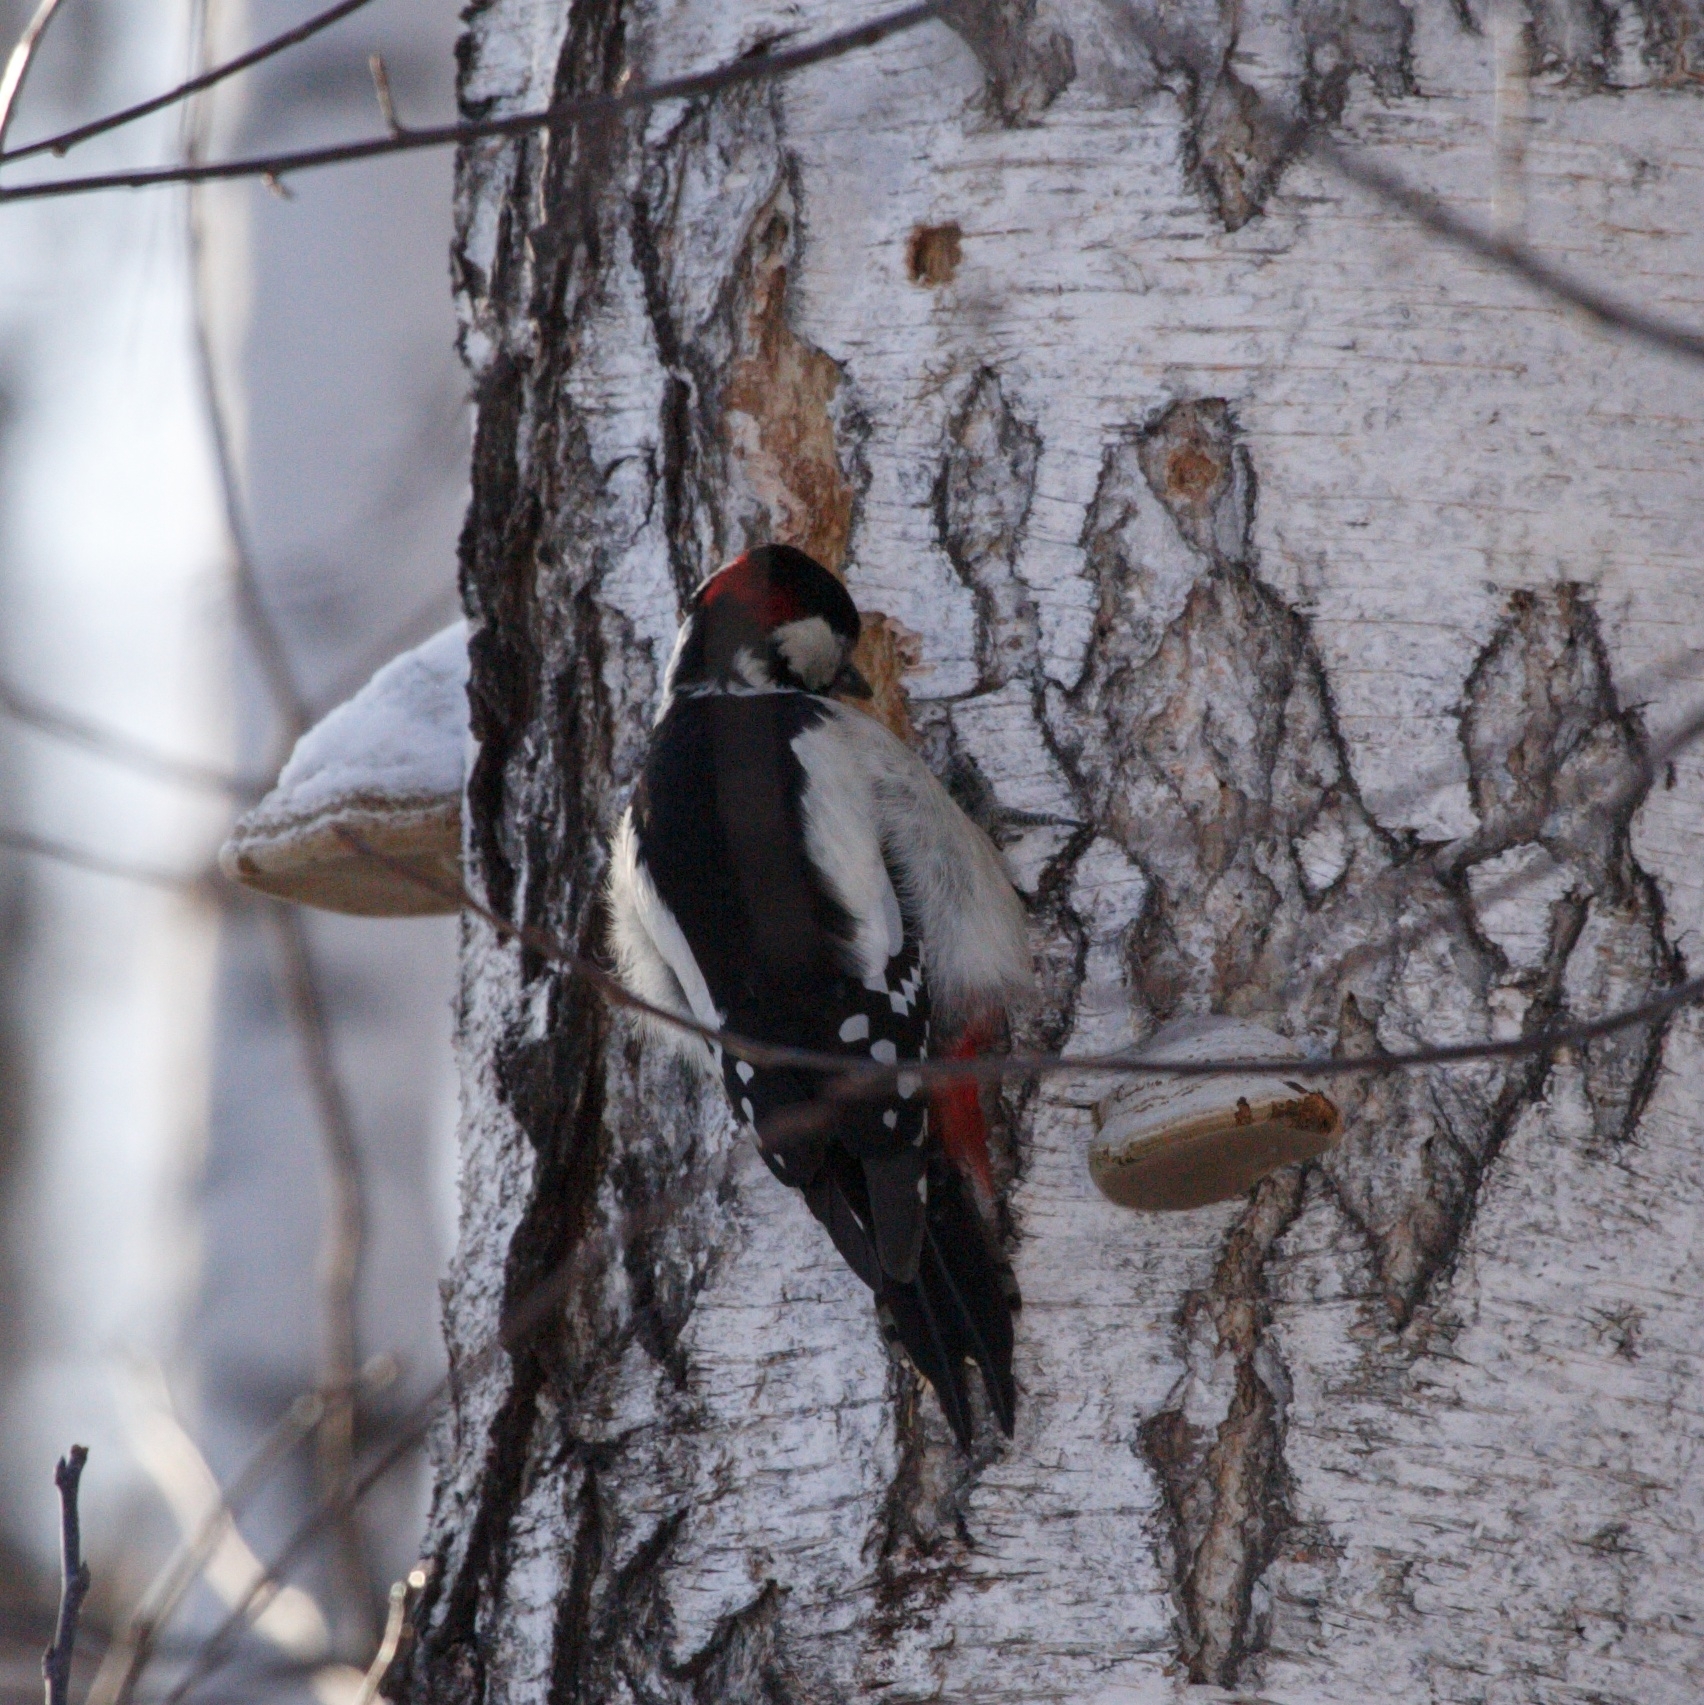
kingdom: Animalia
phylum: Chordata
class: Aves
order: Piciformes
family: Picidae
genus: Dendrocopos
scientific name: Dendrocopos major
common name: Great spotted woodpecker
